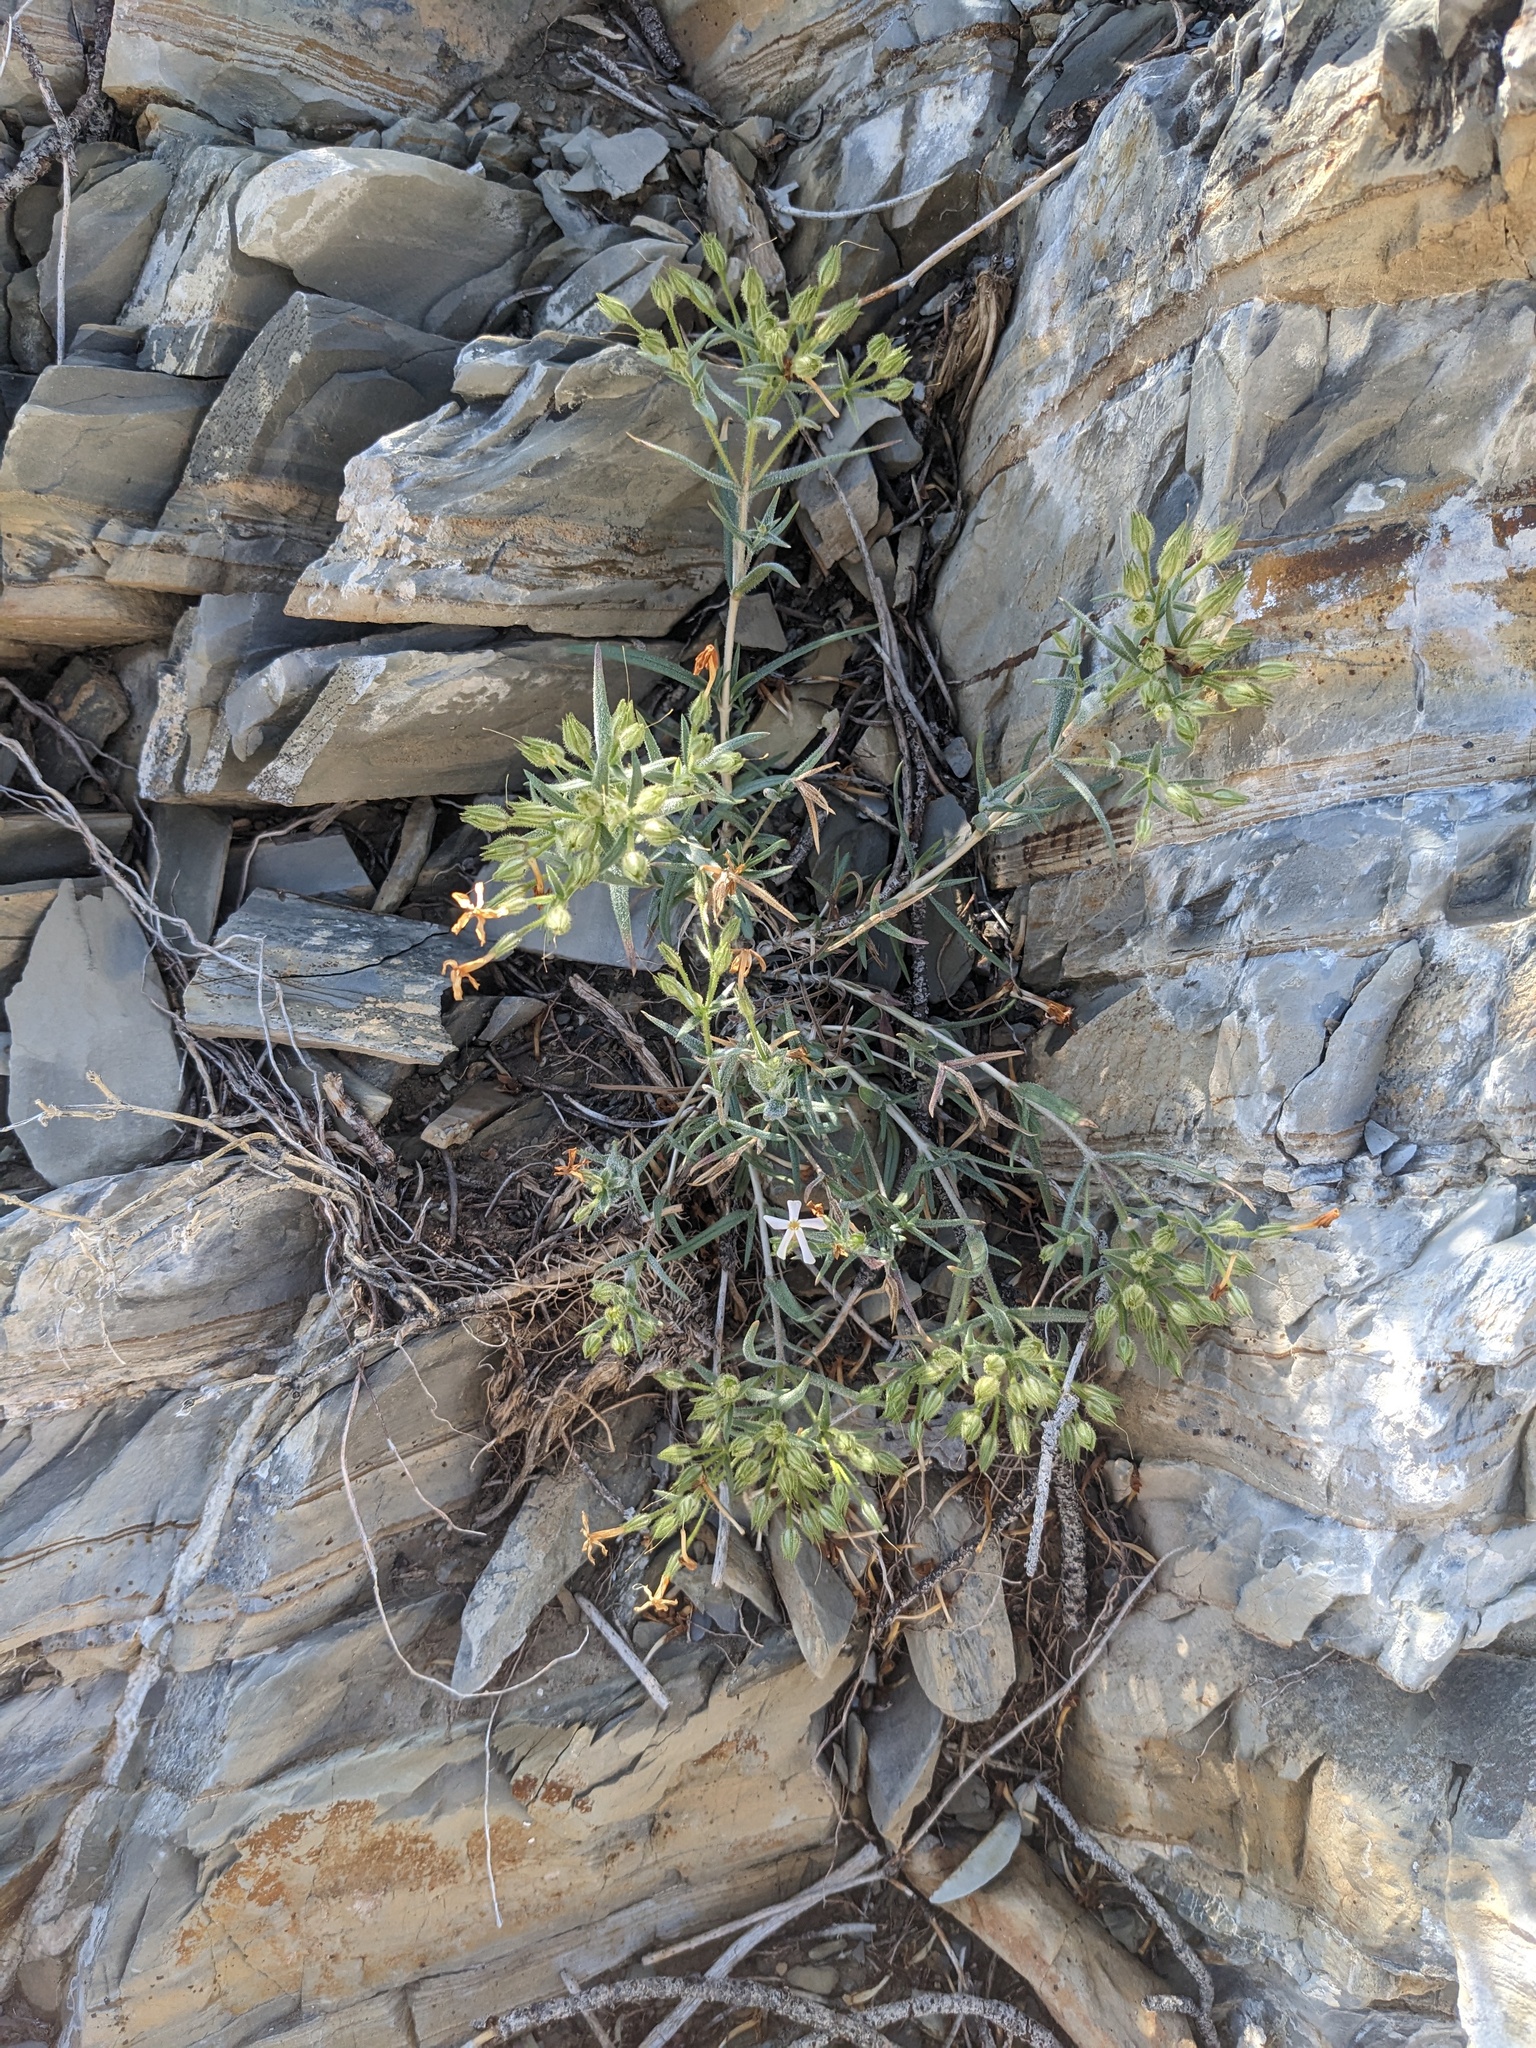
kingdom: Plantae
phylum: Tracheophyta
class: Magnoliopsida
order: Ericales
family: Polemoniaceae
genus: Phlox
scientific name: Phlox longifolia
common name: Longleaf phlox
